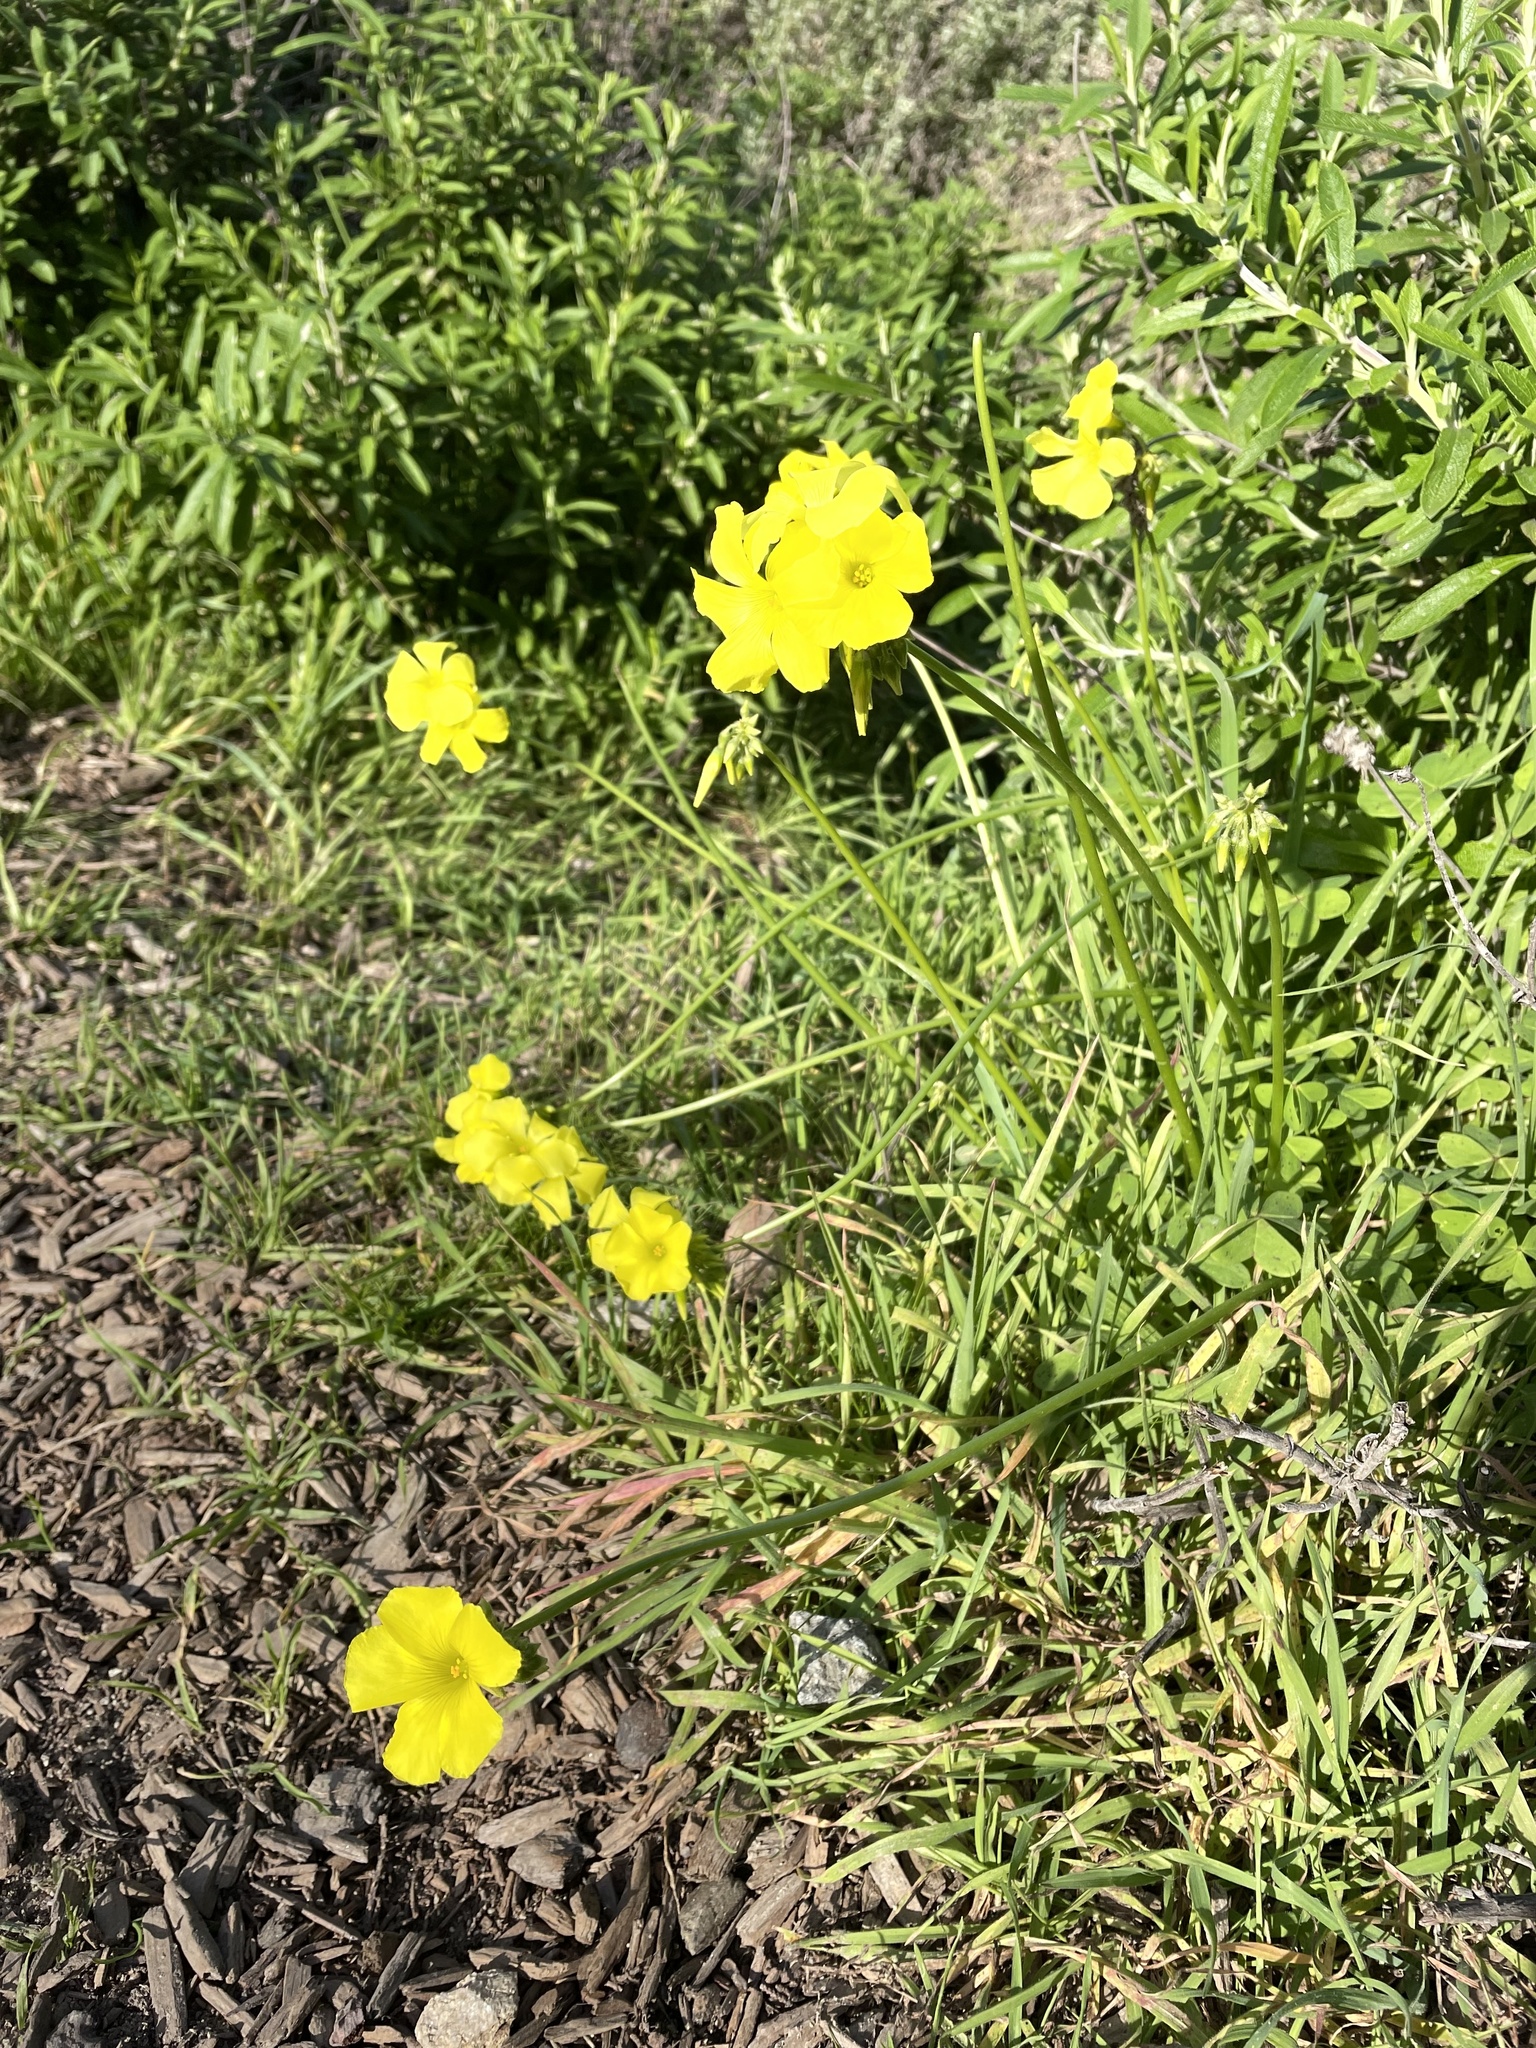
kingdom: Plantae
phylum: Tracheophyta
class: Magnoliopsida
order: Oxalidales
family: Oxalidaceae
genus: Oxalis
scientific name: Oxalis pes-caprae
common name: Bermuda-buttercup
